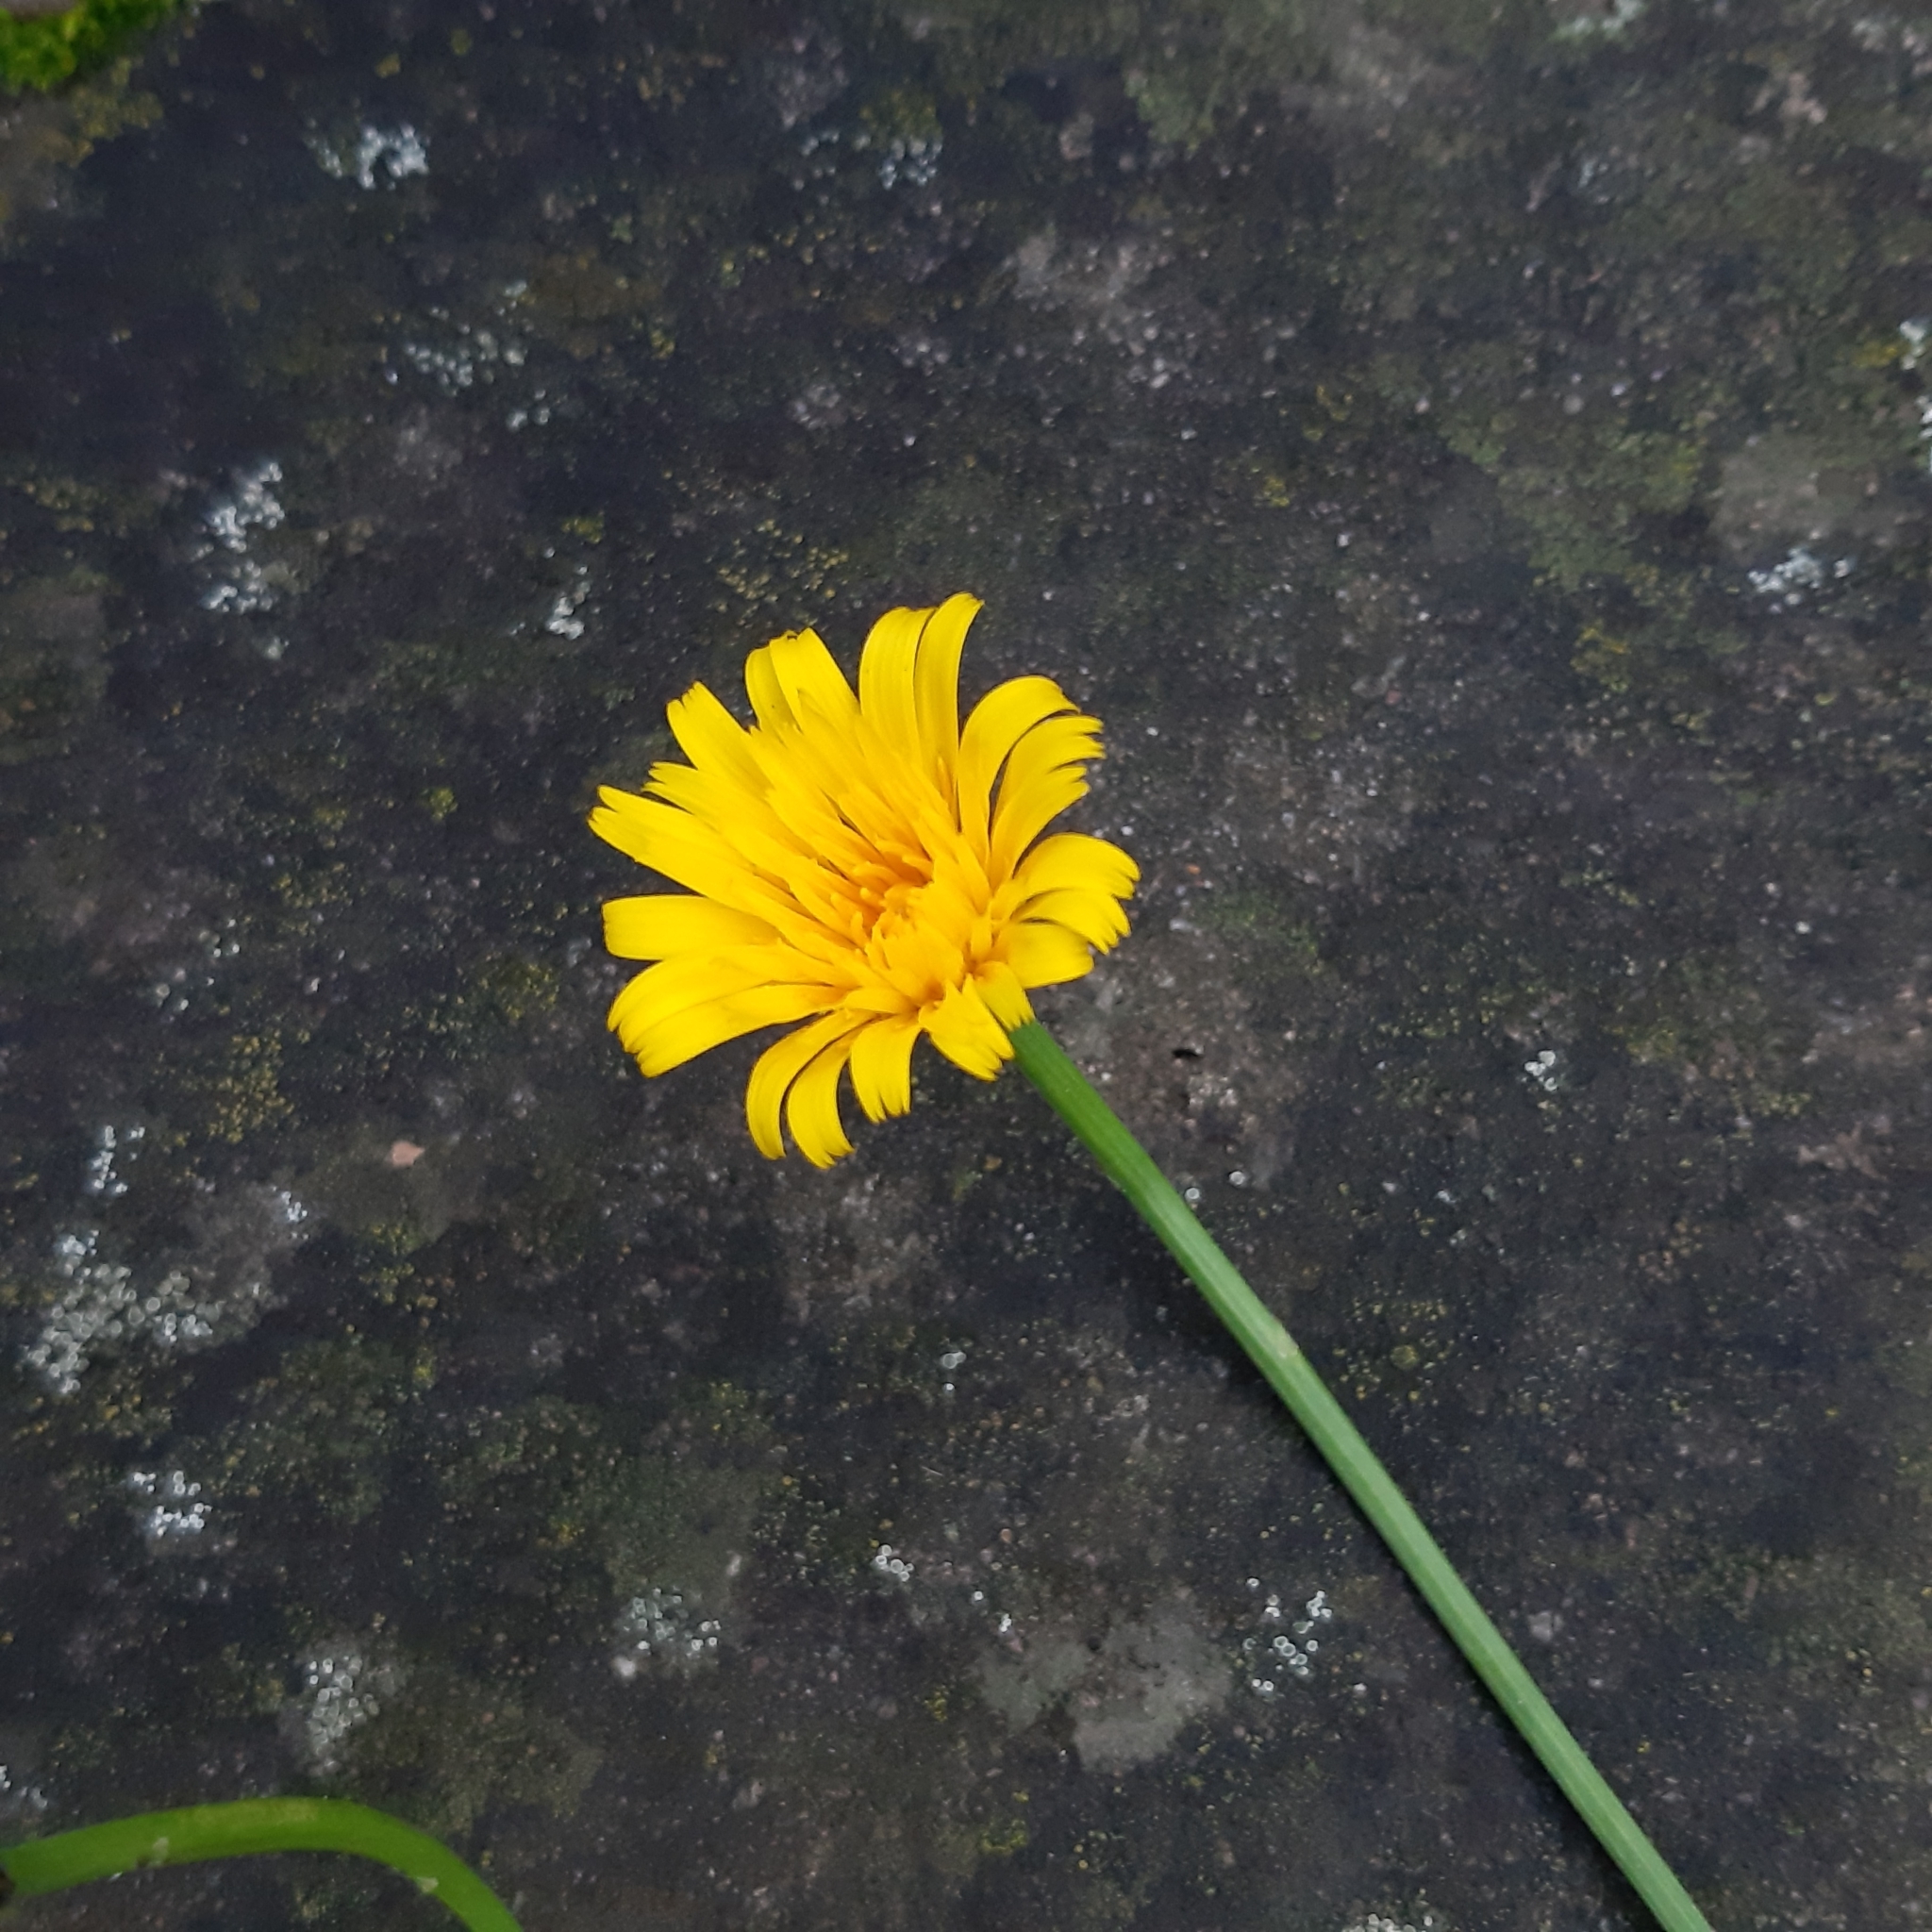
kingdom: Plantae
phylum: Tracheophyta
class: Magnoliopsida
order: Asterales
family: Asteraceae
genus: Hypochaeris
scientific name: Hypochaeris radicata
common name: Flatweed
